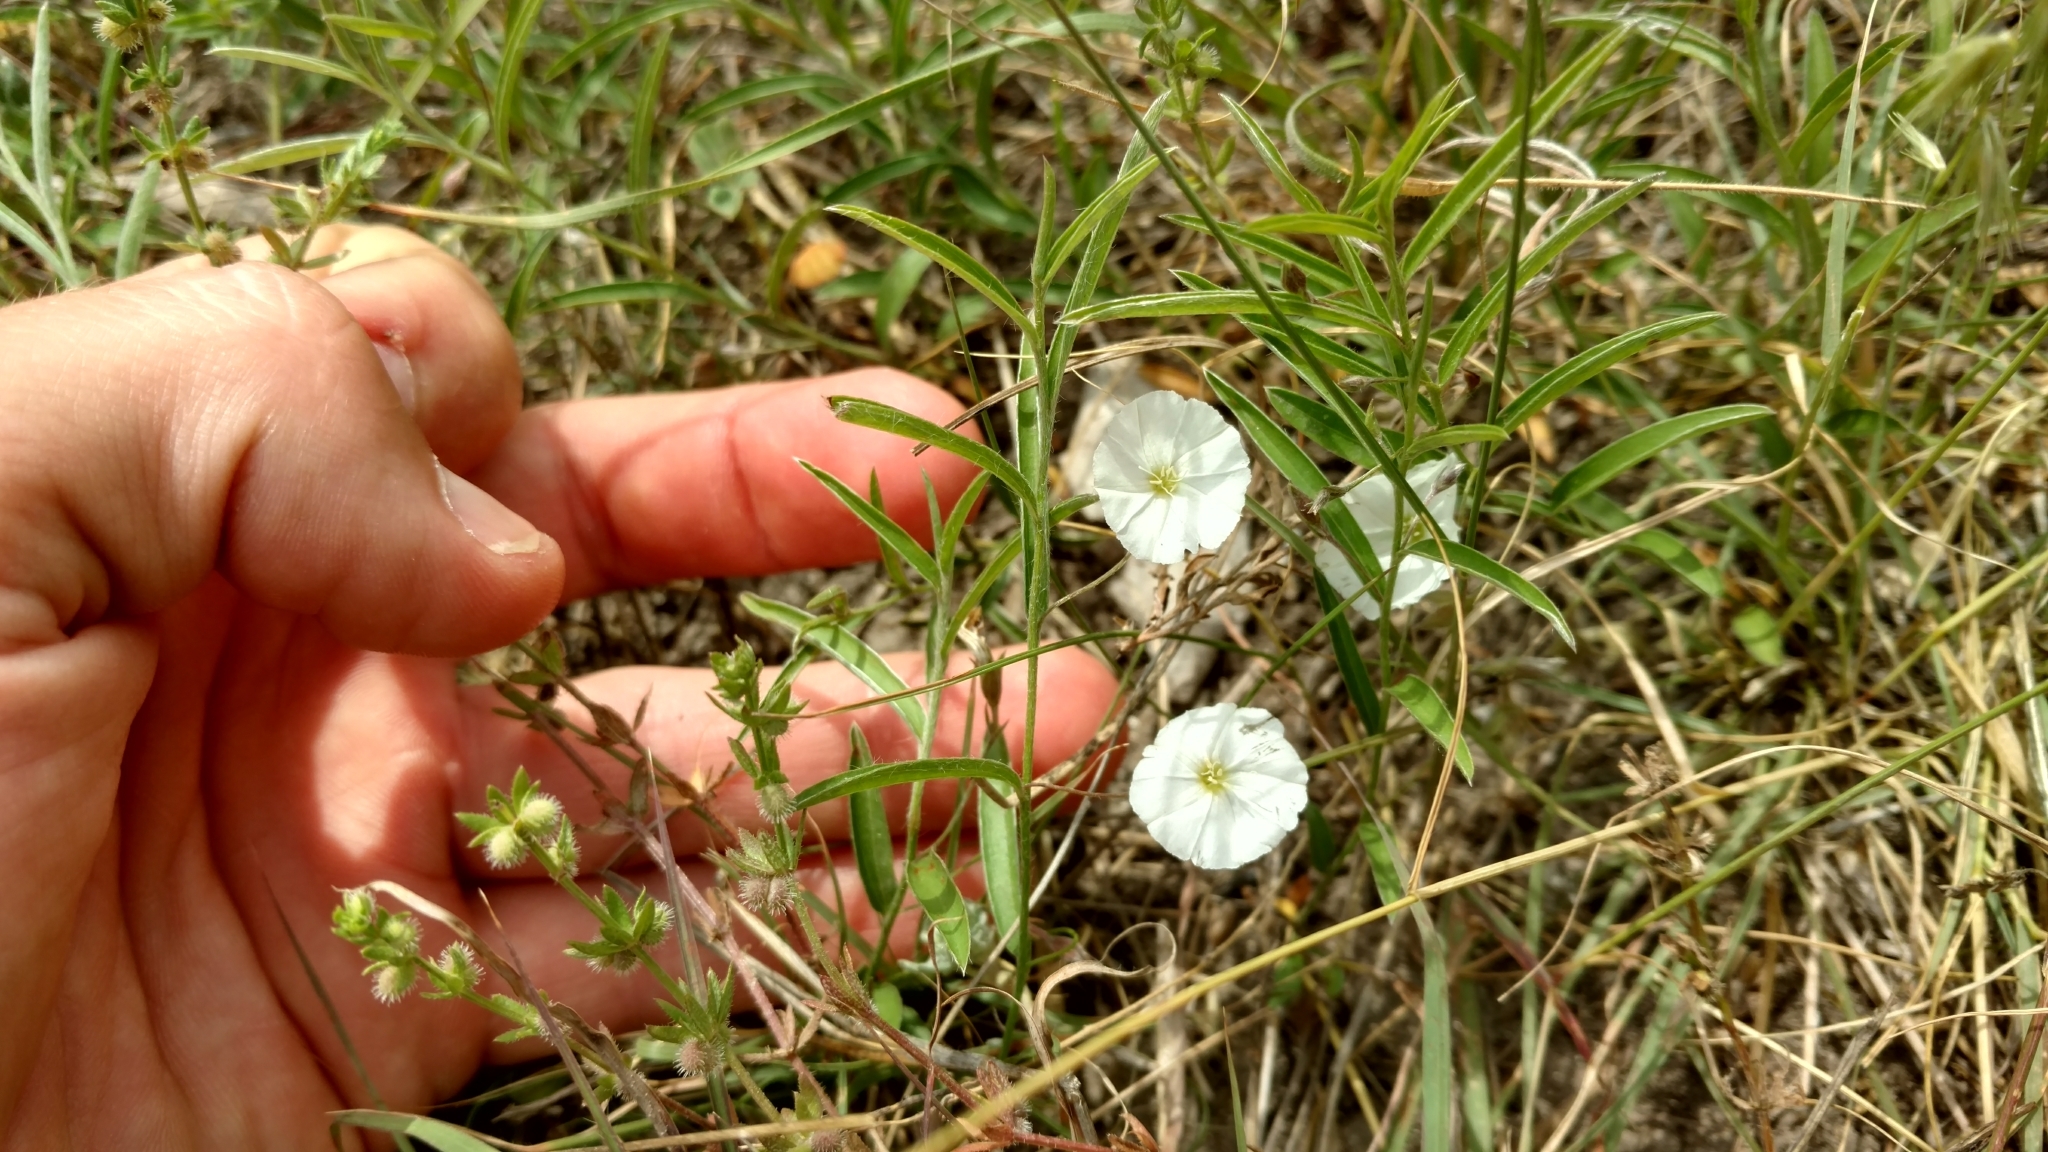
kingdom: Plantae
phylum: Tracheophyta
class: Magnoliopsida
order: Solanales
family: Convolvulaceae
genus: Evolvulus
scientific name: Evolvulus sericeus
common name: Blue dots
